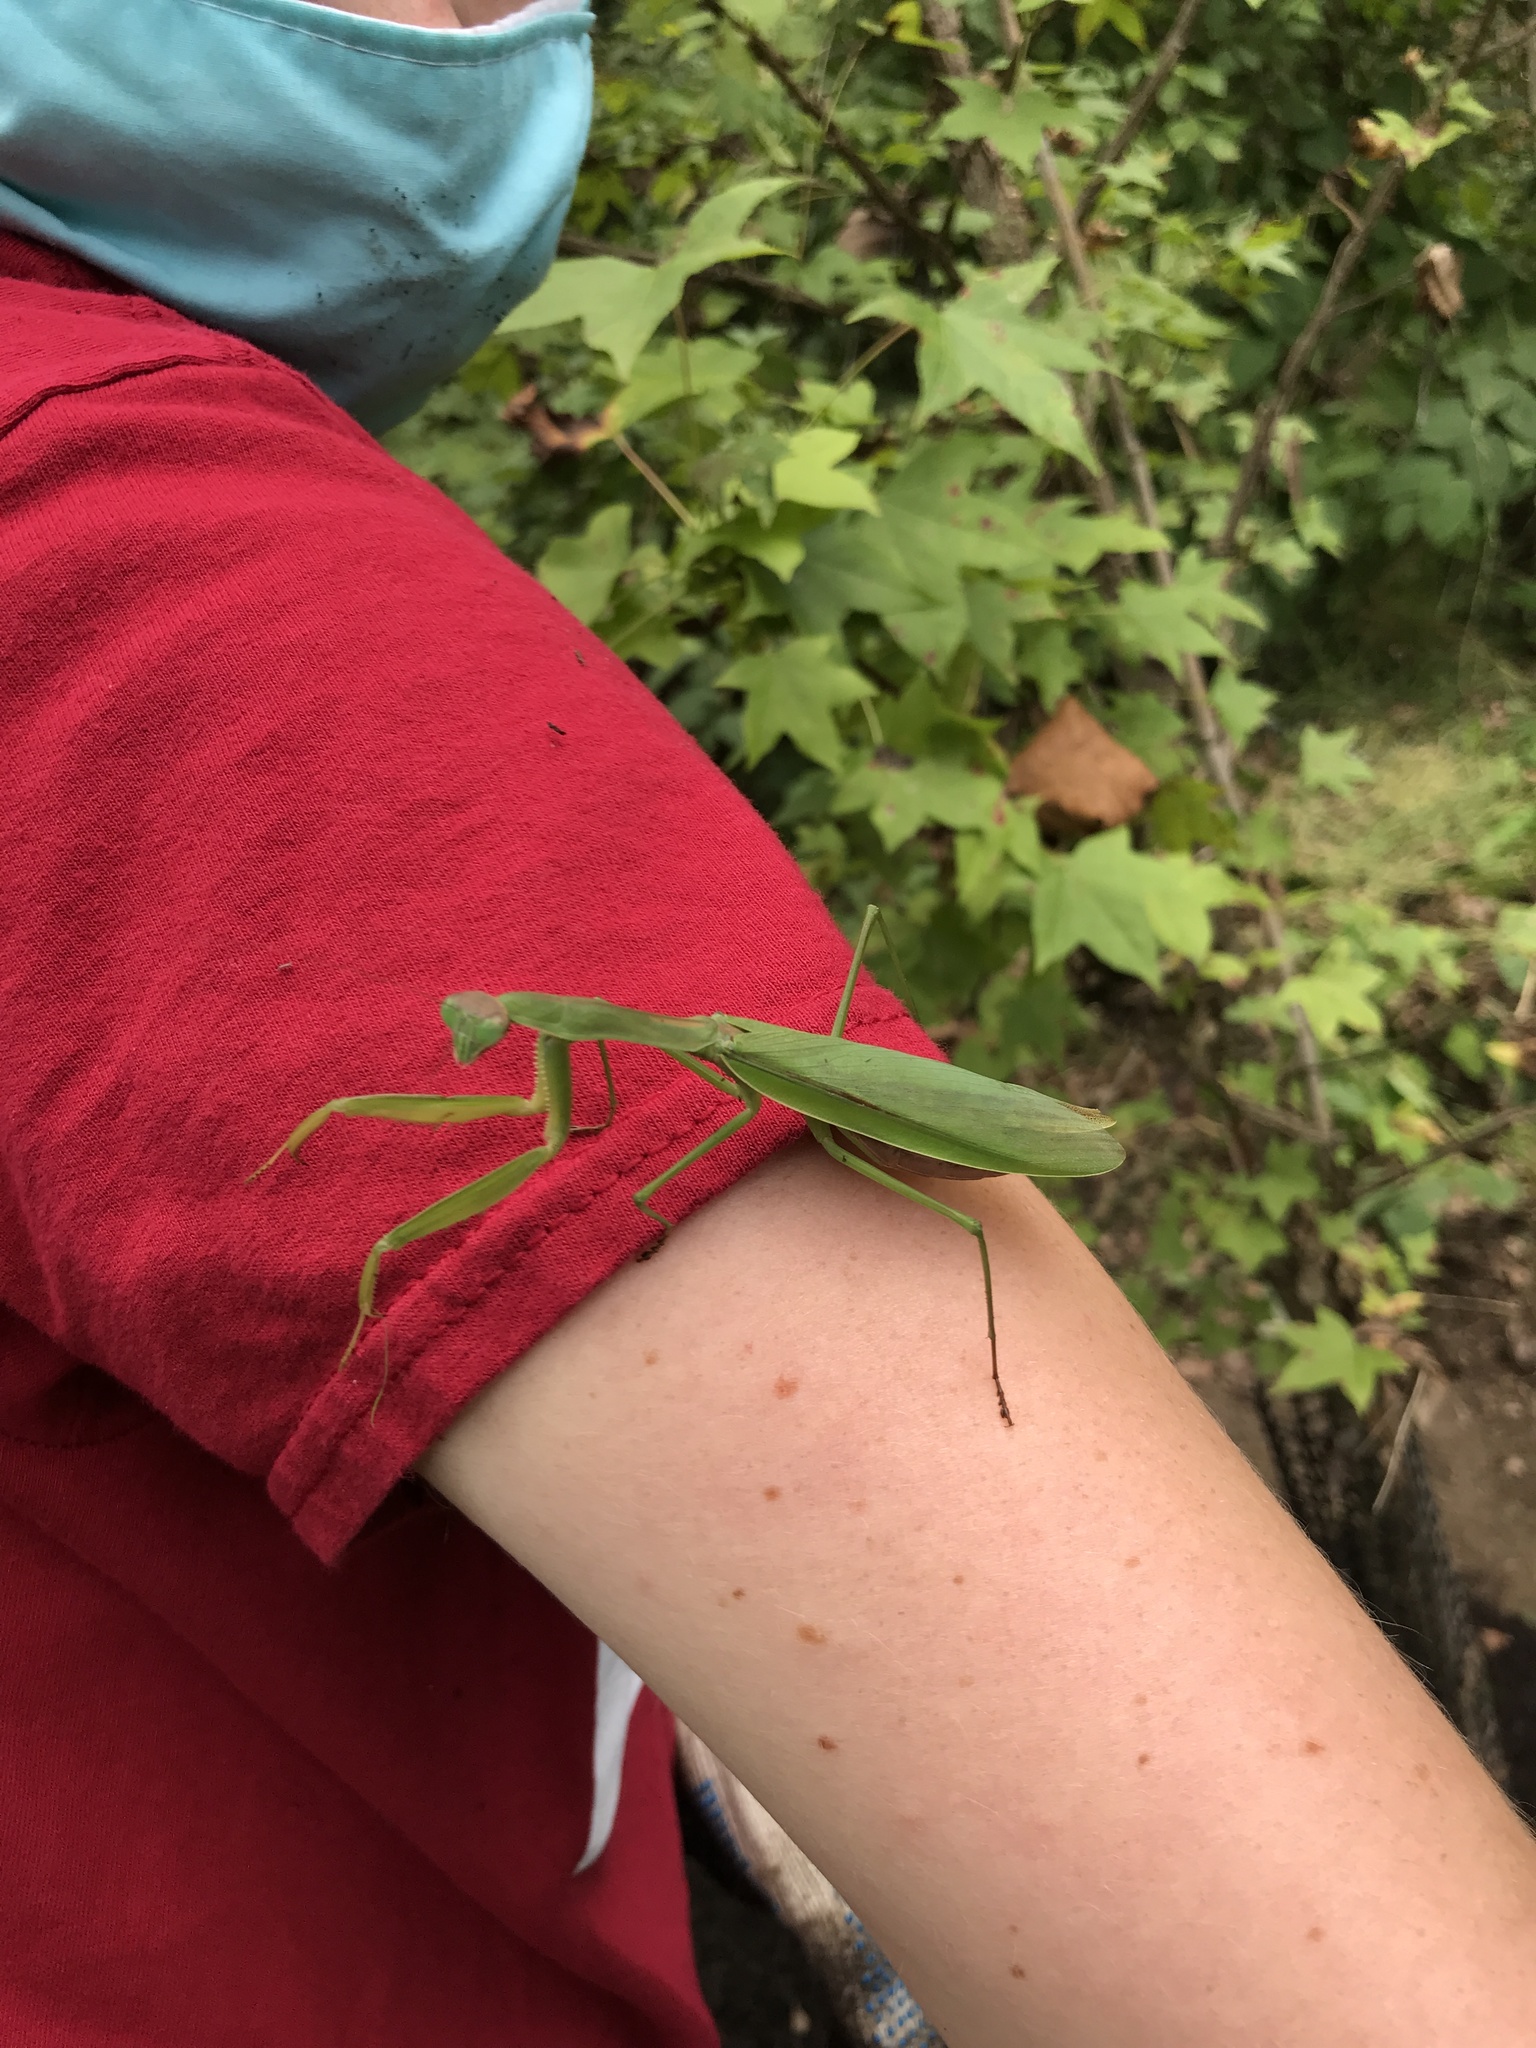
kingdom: Animalia
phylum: Arthropoda
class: Insecta
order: Mantodea
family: Mantidae
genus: Tenodera
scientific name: Tenodera sinensis
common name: Chinese mantis
